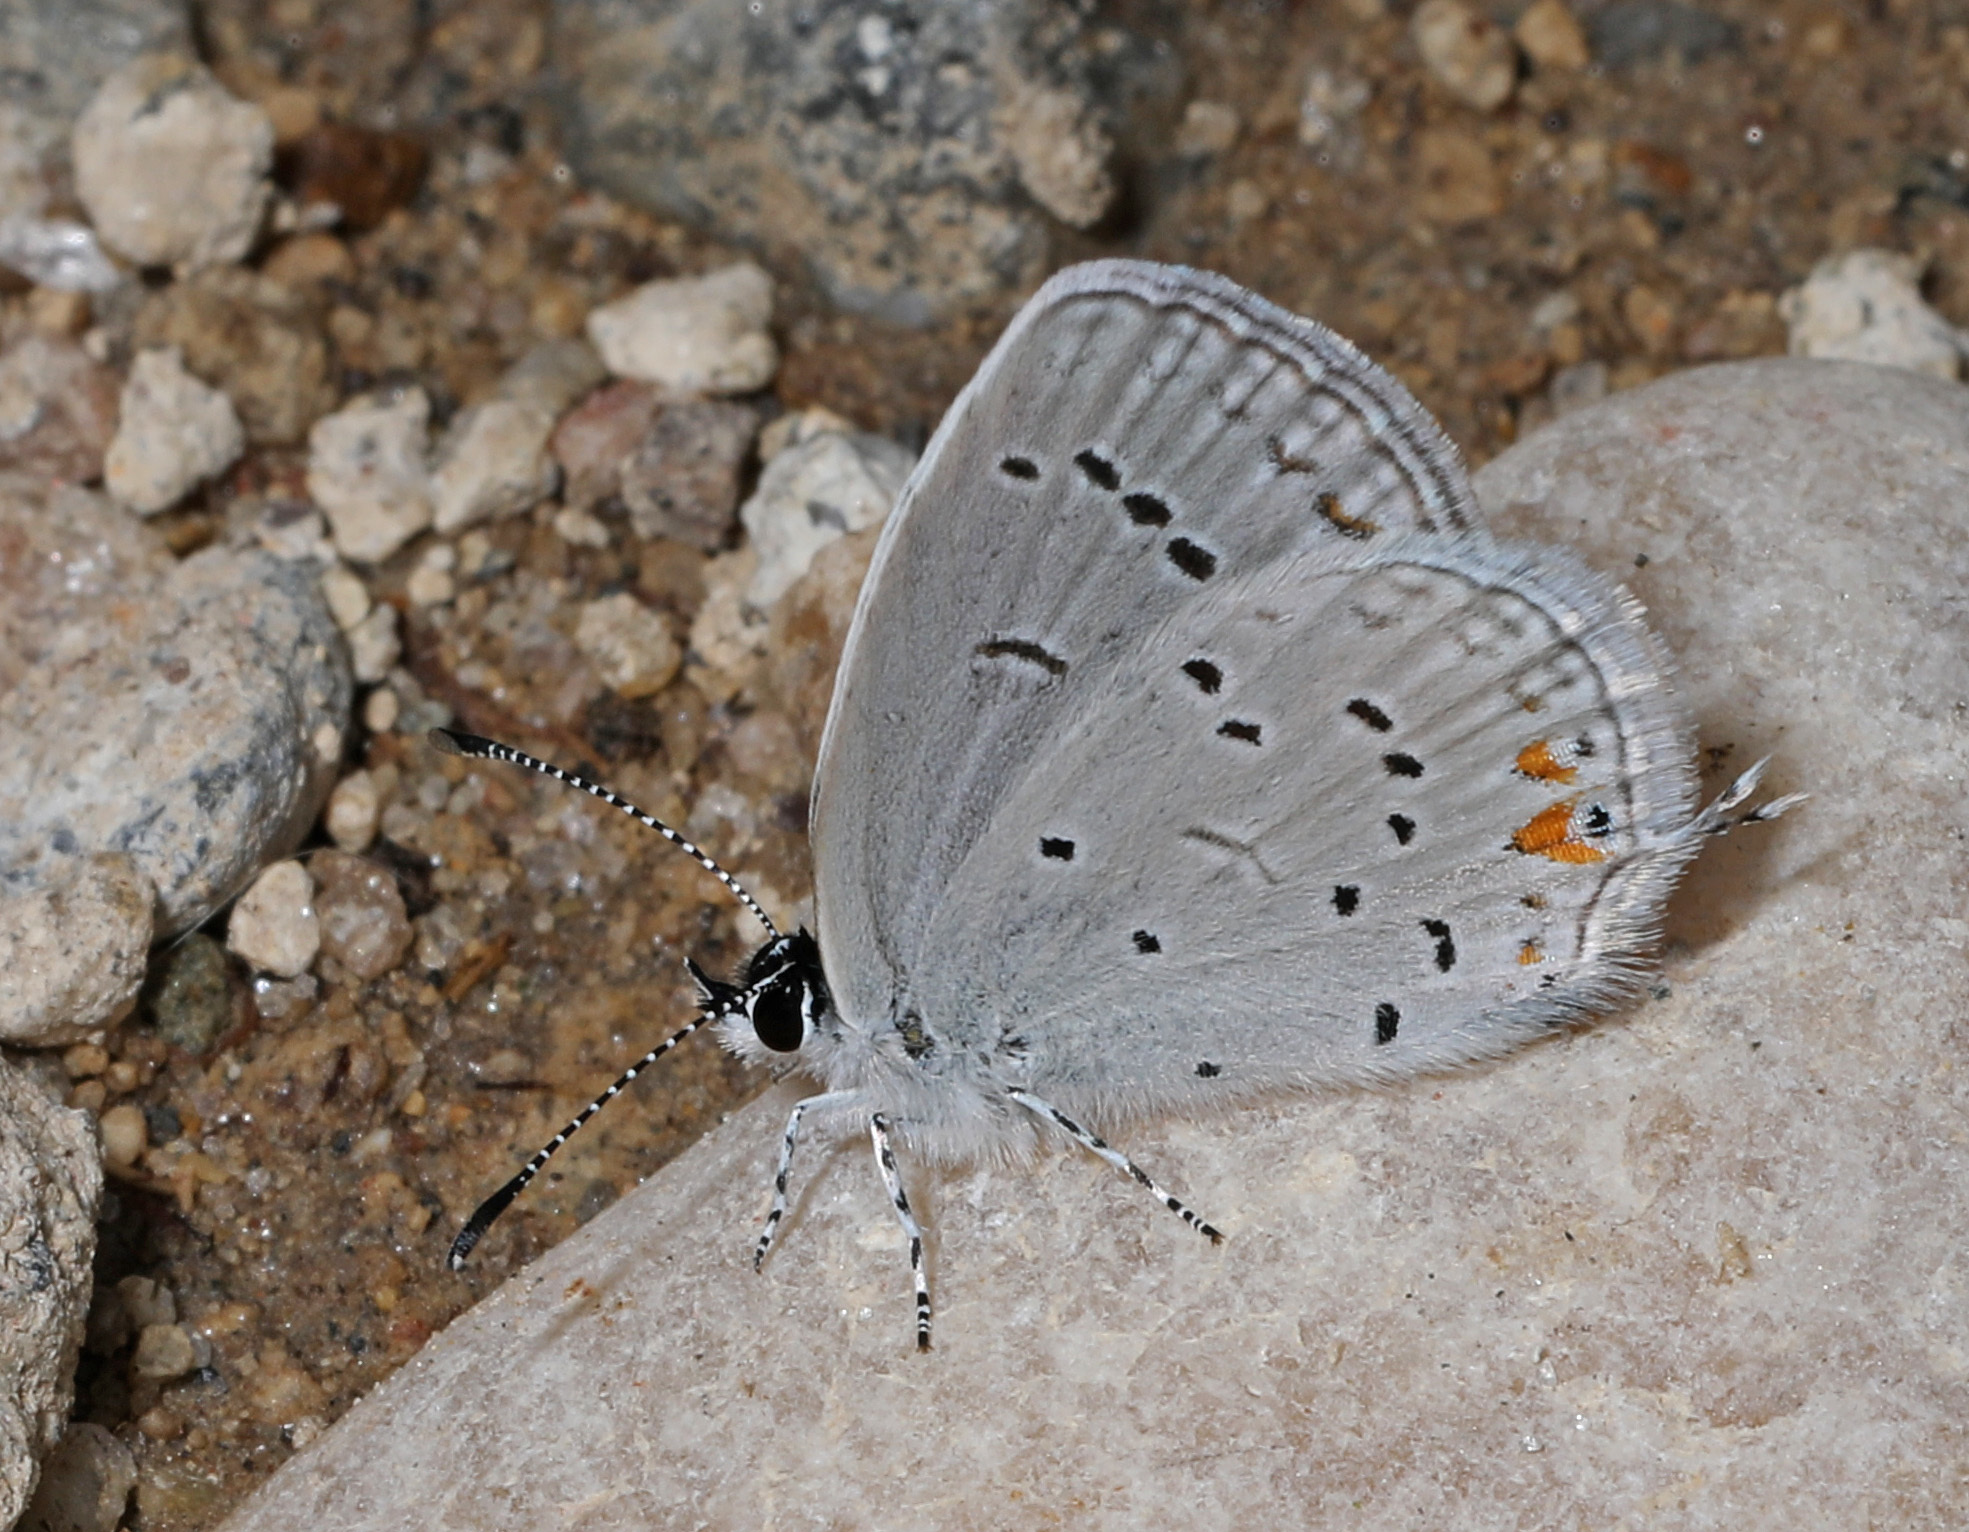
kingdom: Animalia
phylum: Arthropoda
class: Insecta
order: Lepidoptera
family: Lycaenidae
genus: Elkalyce
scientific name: Elkalyce comyntas
